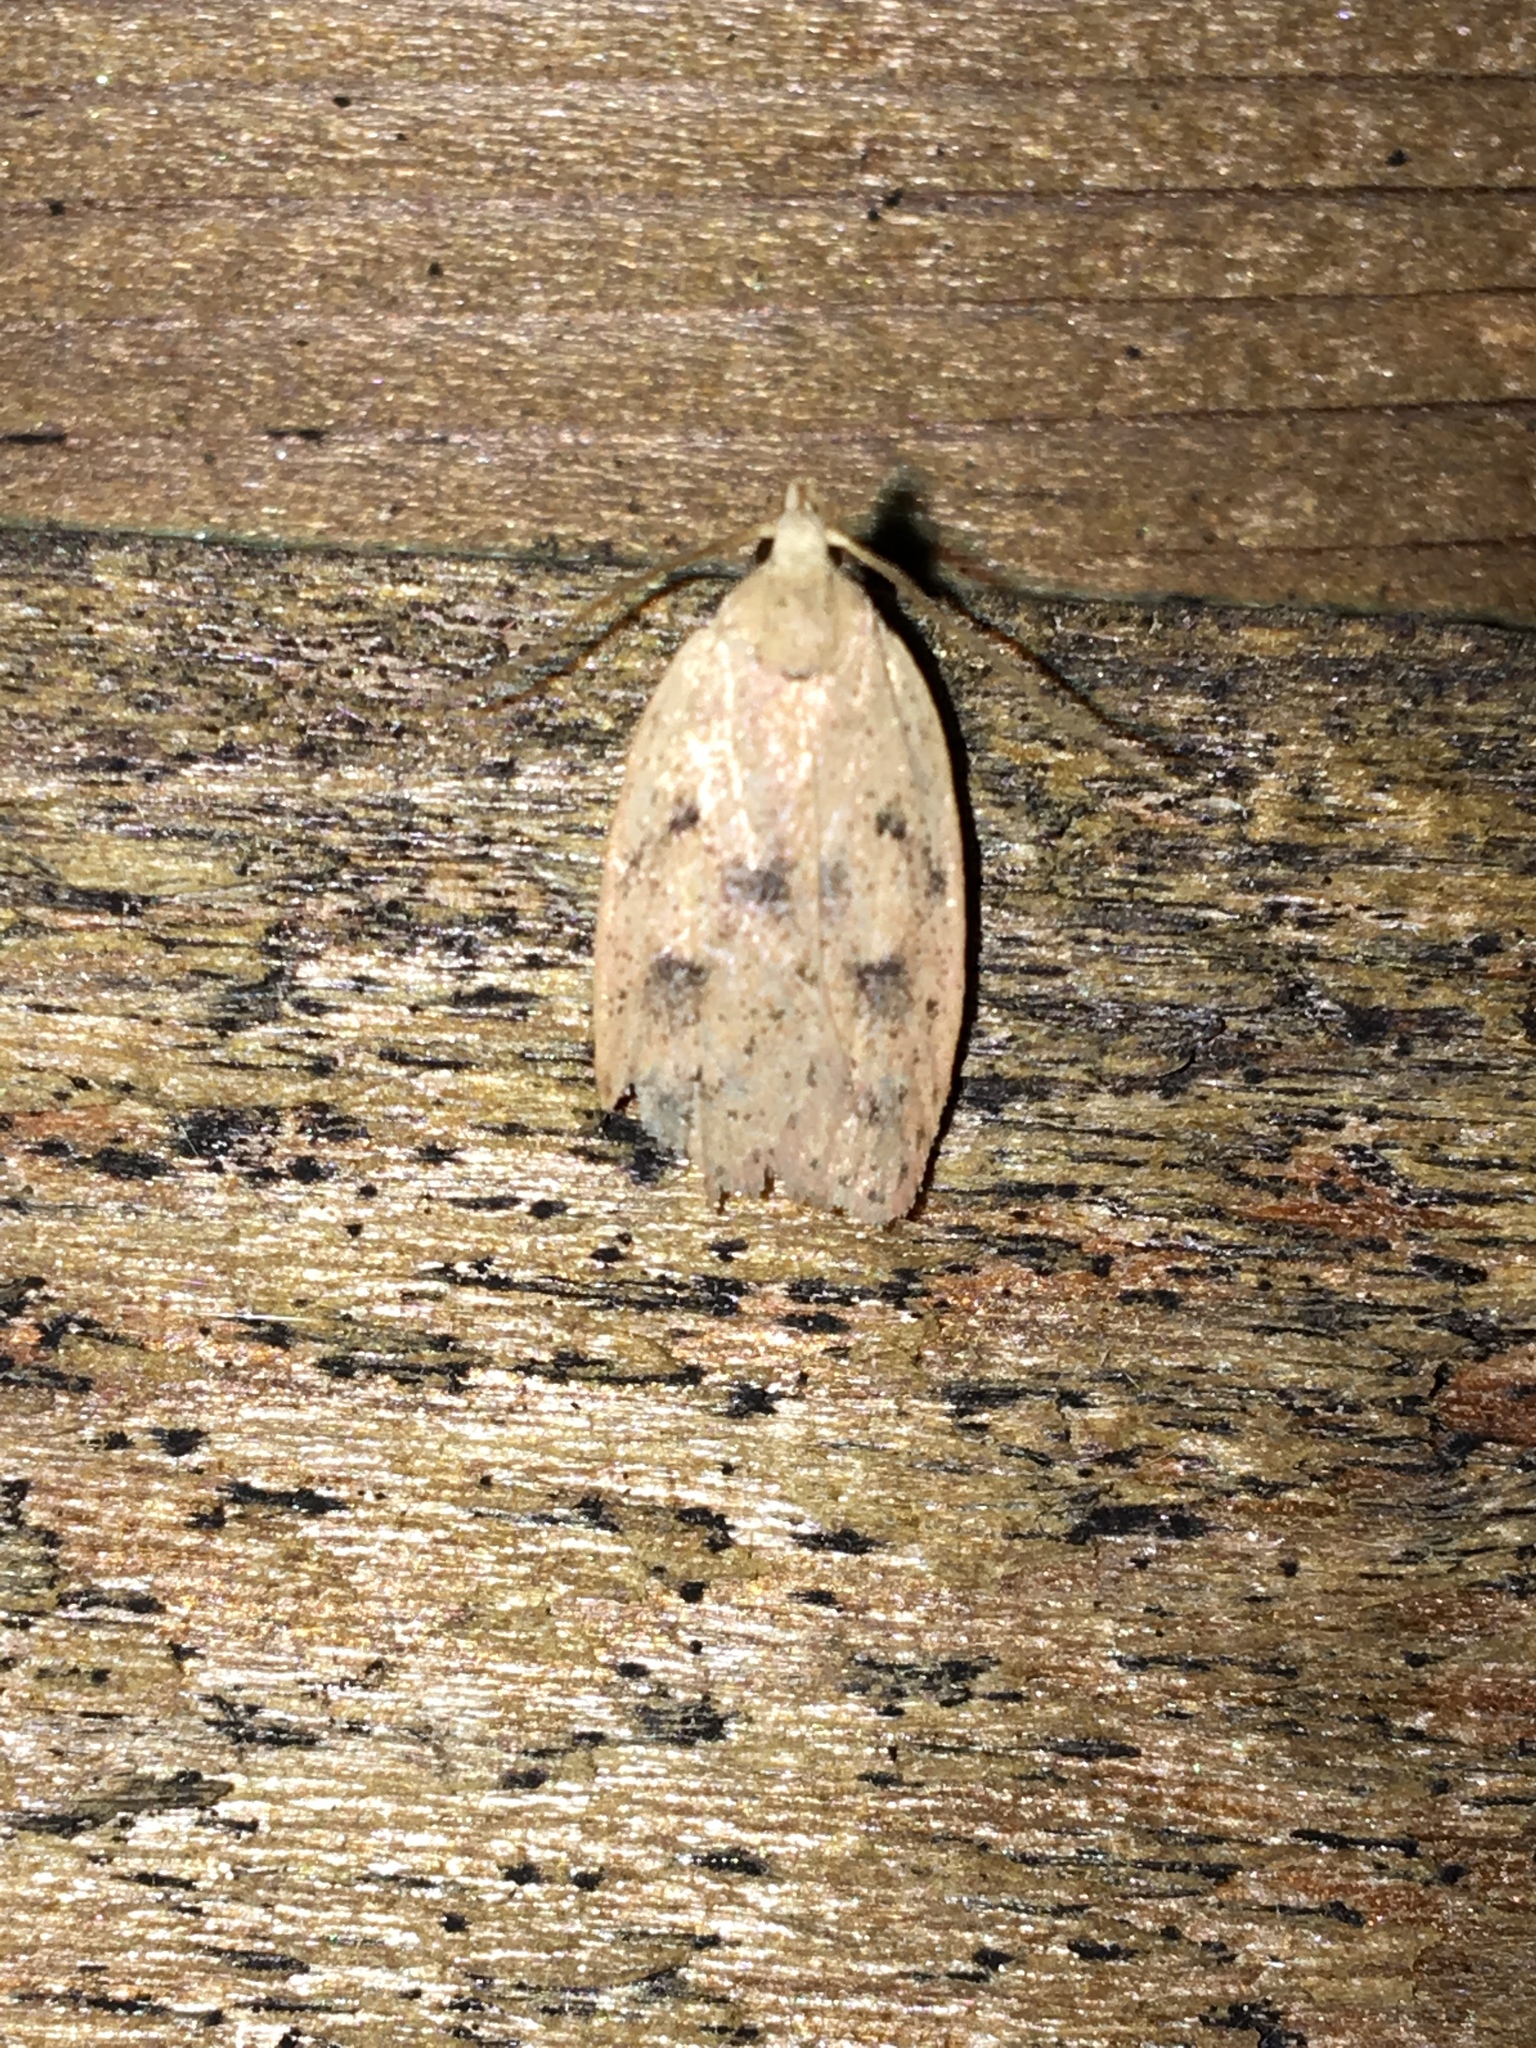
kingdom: Animalia
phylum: Arthropoda
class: Insecta
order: Lepidoptera
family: Peleopodidae
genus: Machimia
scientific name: Machimia tentoriferella
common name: Gold-striped leaftier moth
